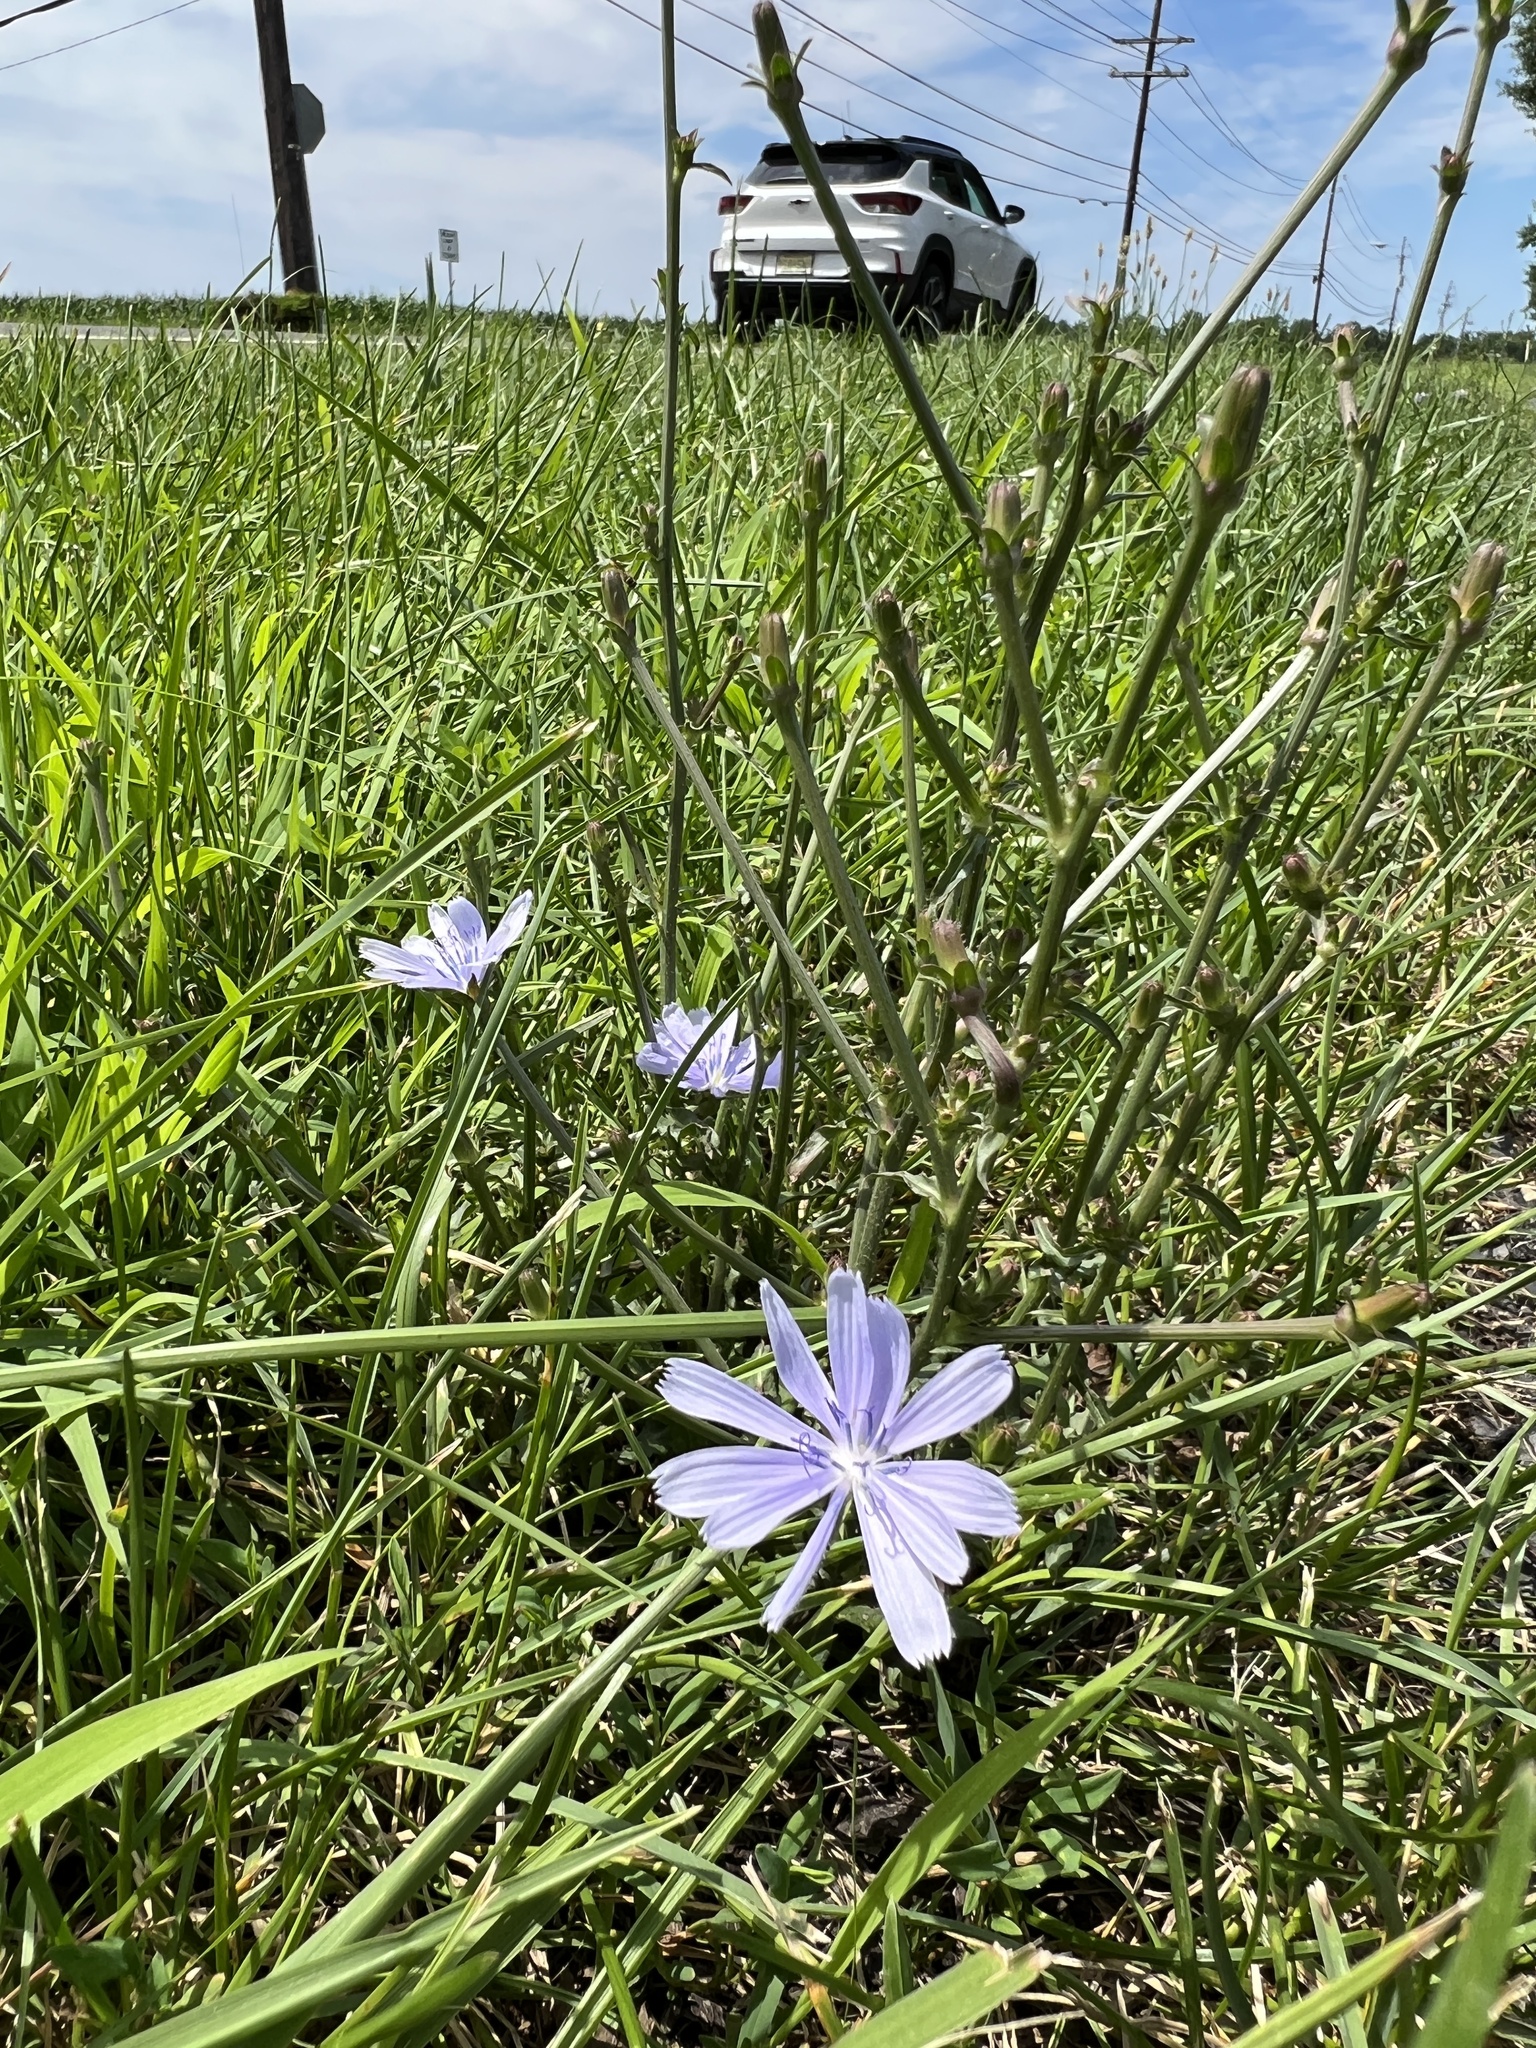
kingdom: Plantae
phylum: Tracheophyta
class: Magnoliopsida
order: Asterales
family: Asteraceae
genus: Cichorium
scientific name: Cichorium intybus
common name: Chicory
